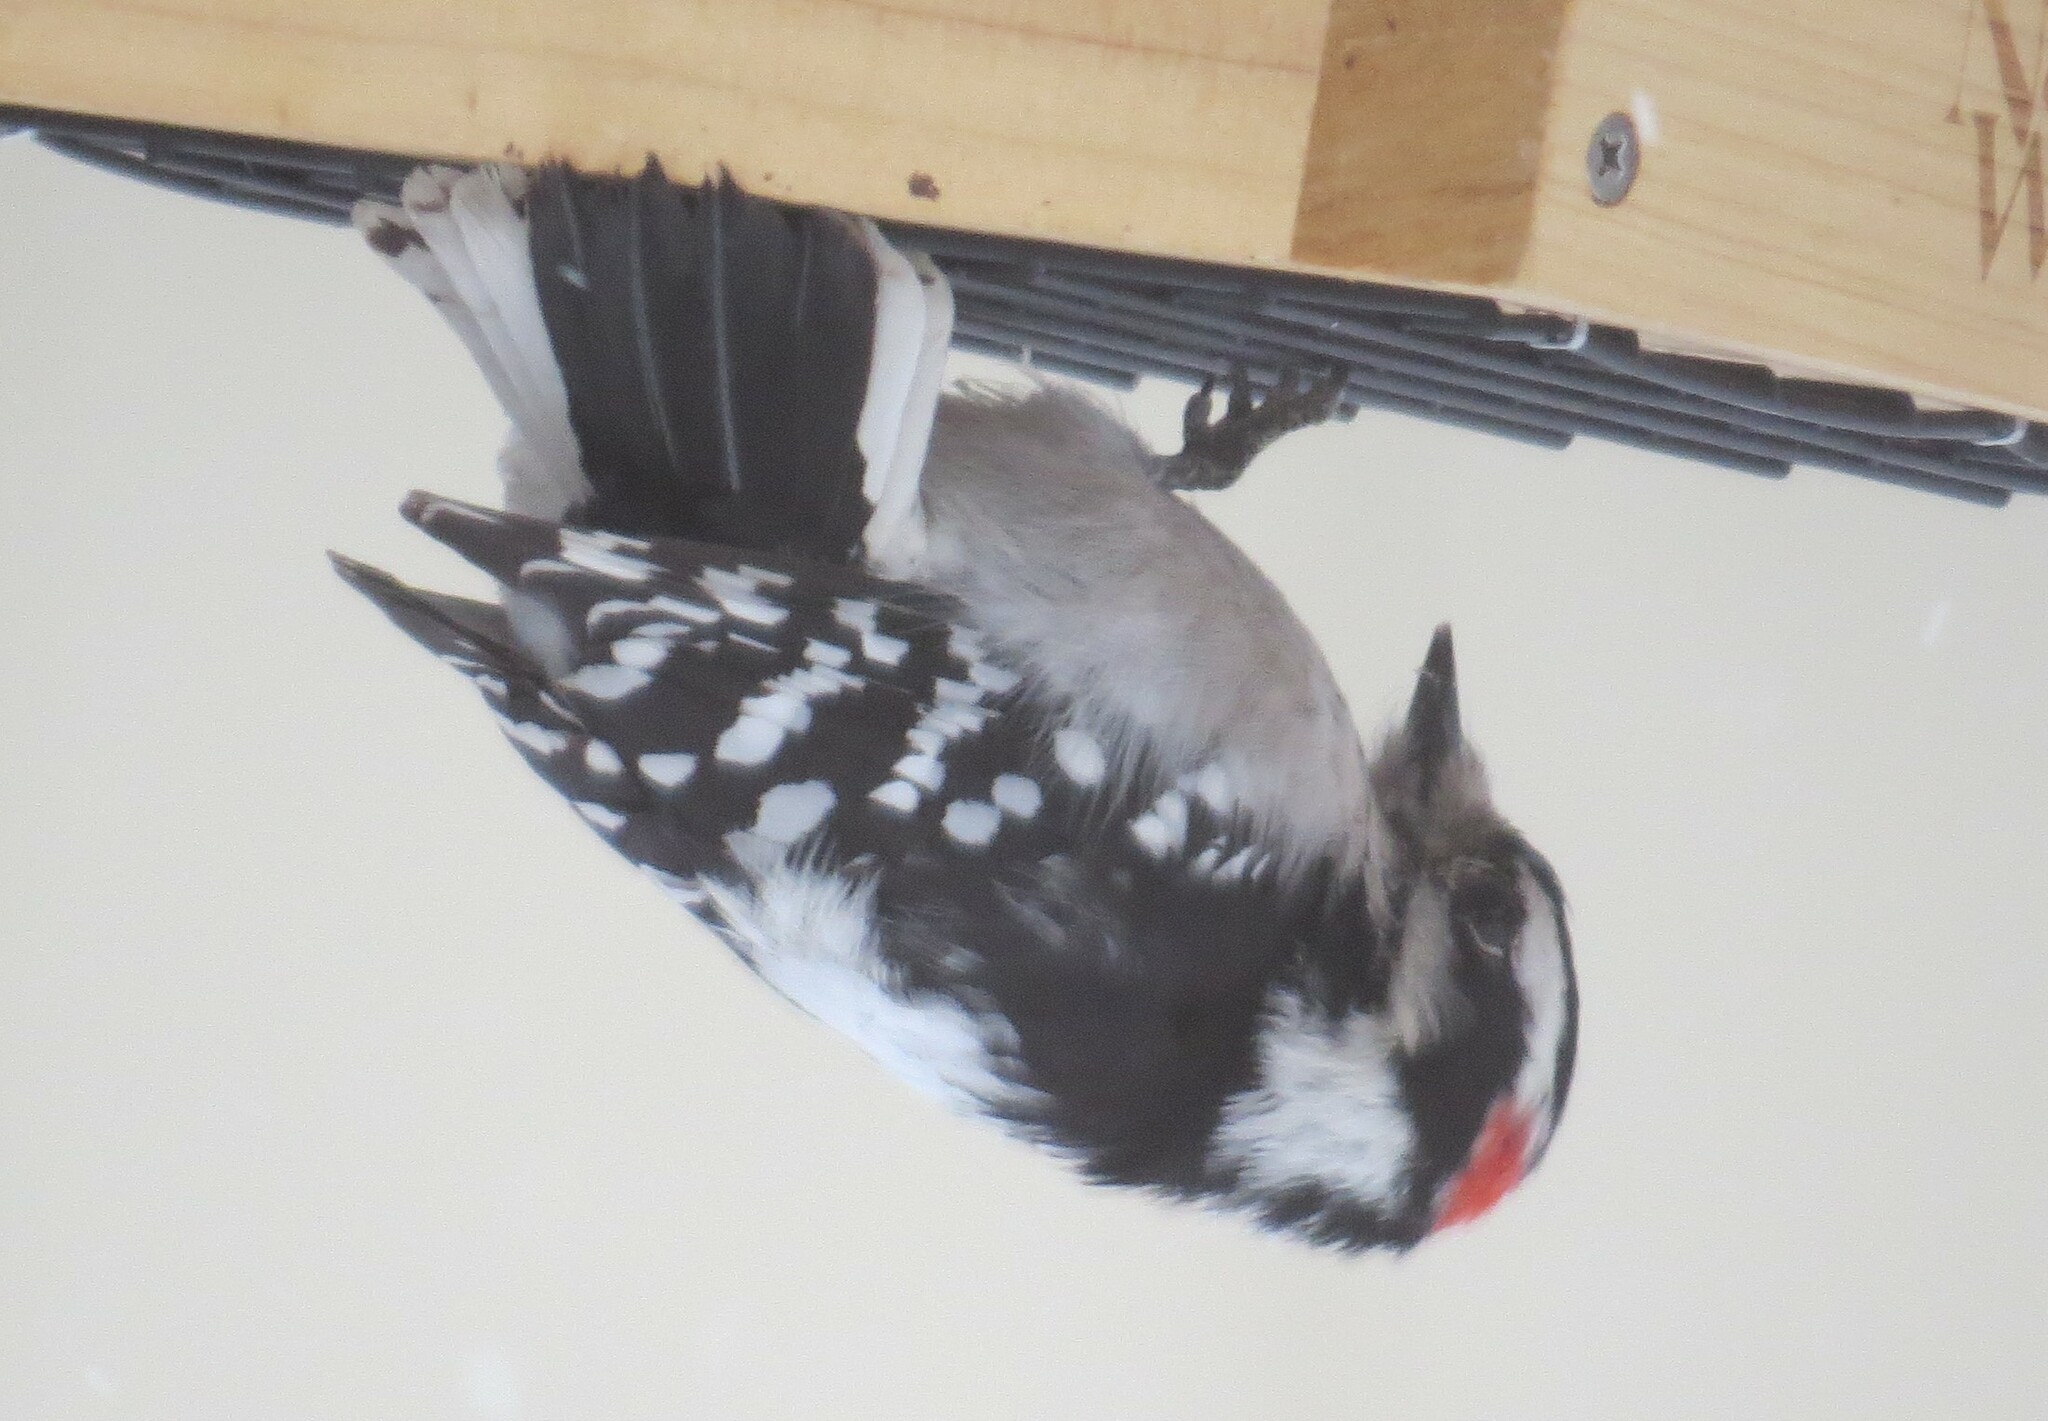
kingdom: Animalia
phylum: Chordata
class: Aves
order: Piciformes
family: Picidae
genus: Dryobates
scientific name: Dryobates pubescens
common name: Downy woodpecker
